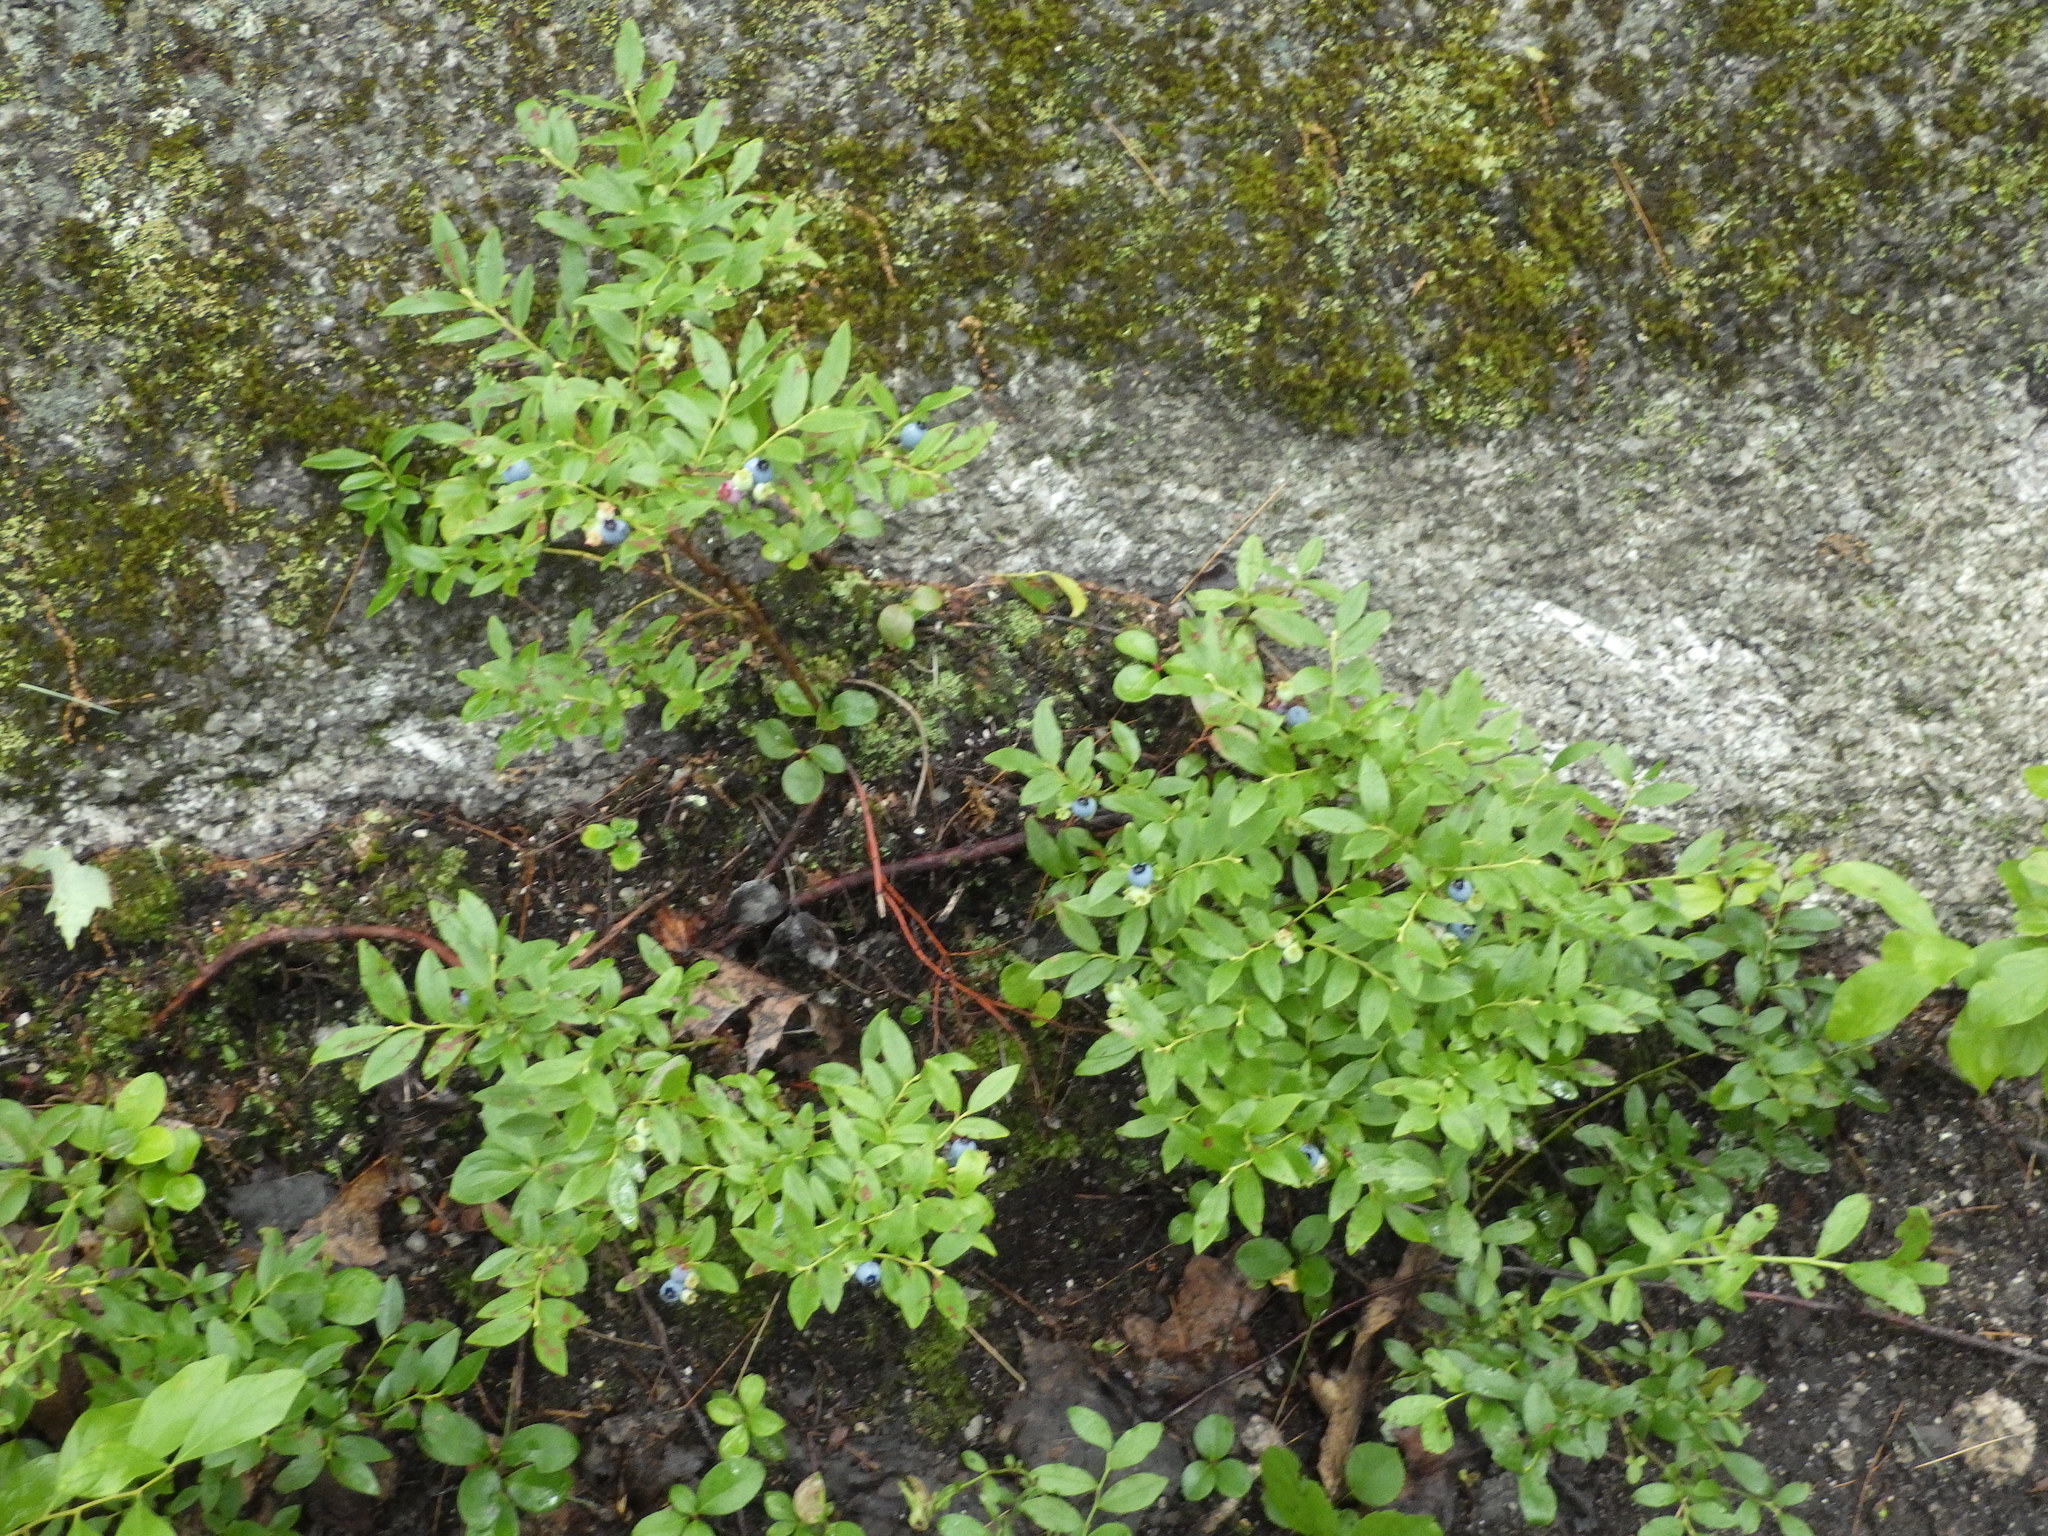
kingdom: Plantae
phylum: Tracheophyta
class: Magnoliopsida
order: Ericales
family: Ericaceae
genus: Vaccinium
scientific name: Vaccinium angustifolium
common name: Early lowbush blueberry
